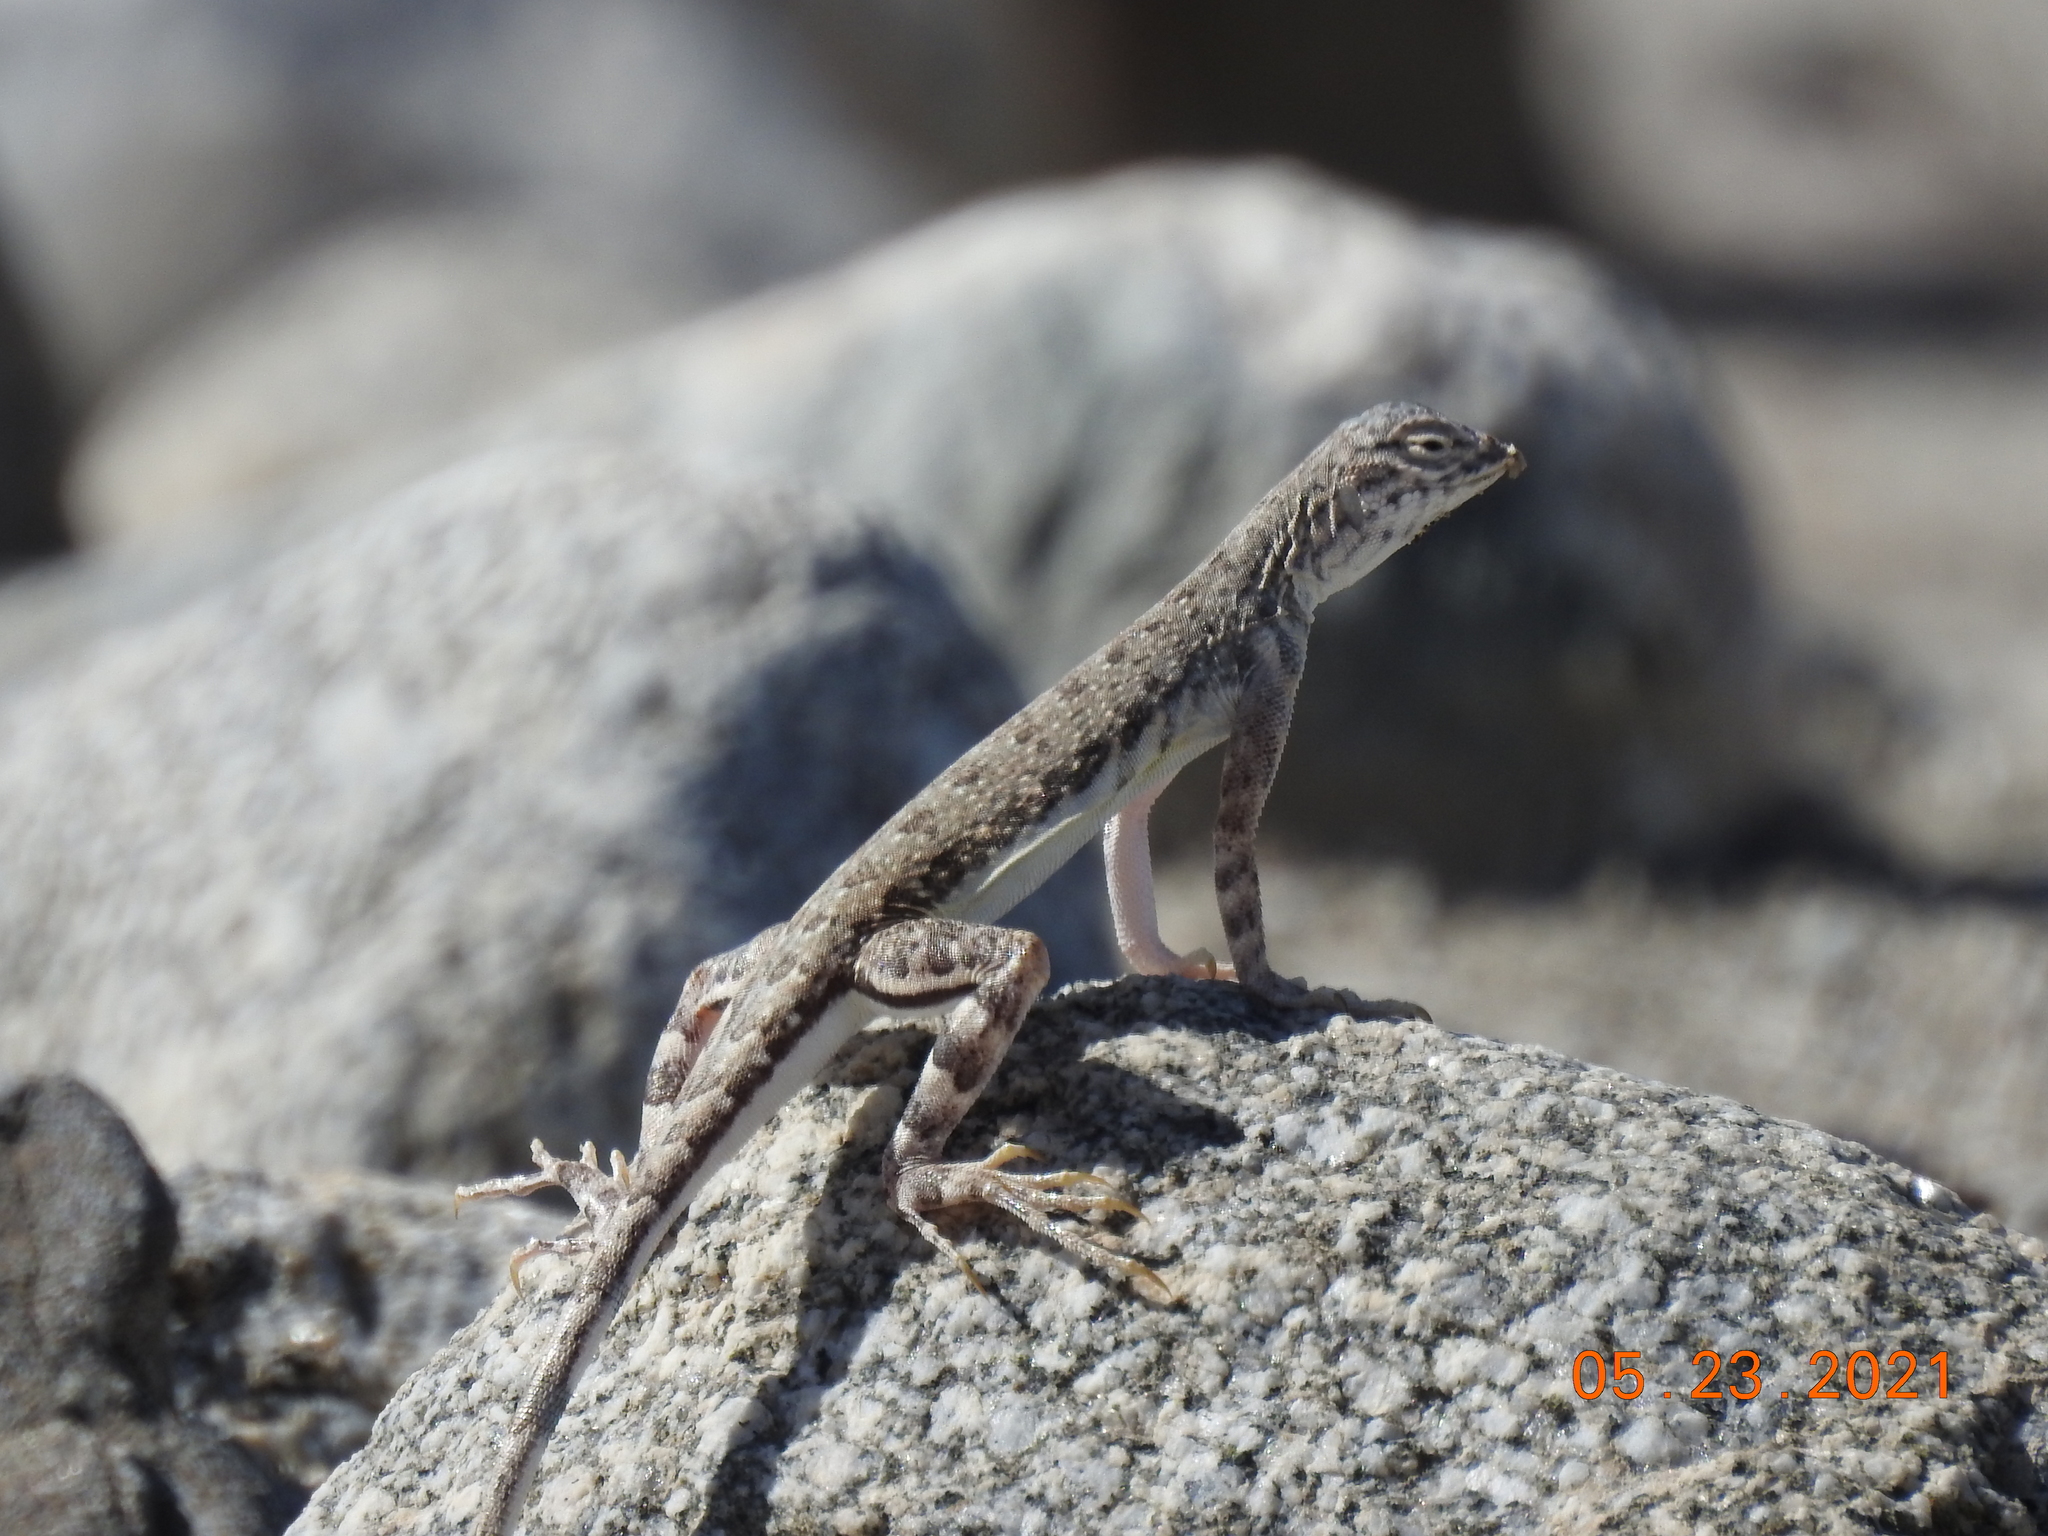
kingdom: Animalia
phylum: Chordata
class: Squamata
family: Phrynosomatidae
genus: Callisaurus
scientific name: Callisaurus draconoides
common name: Zebra-tailed lizard
